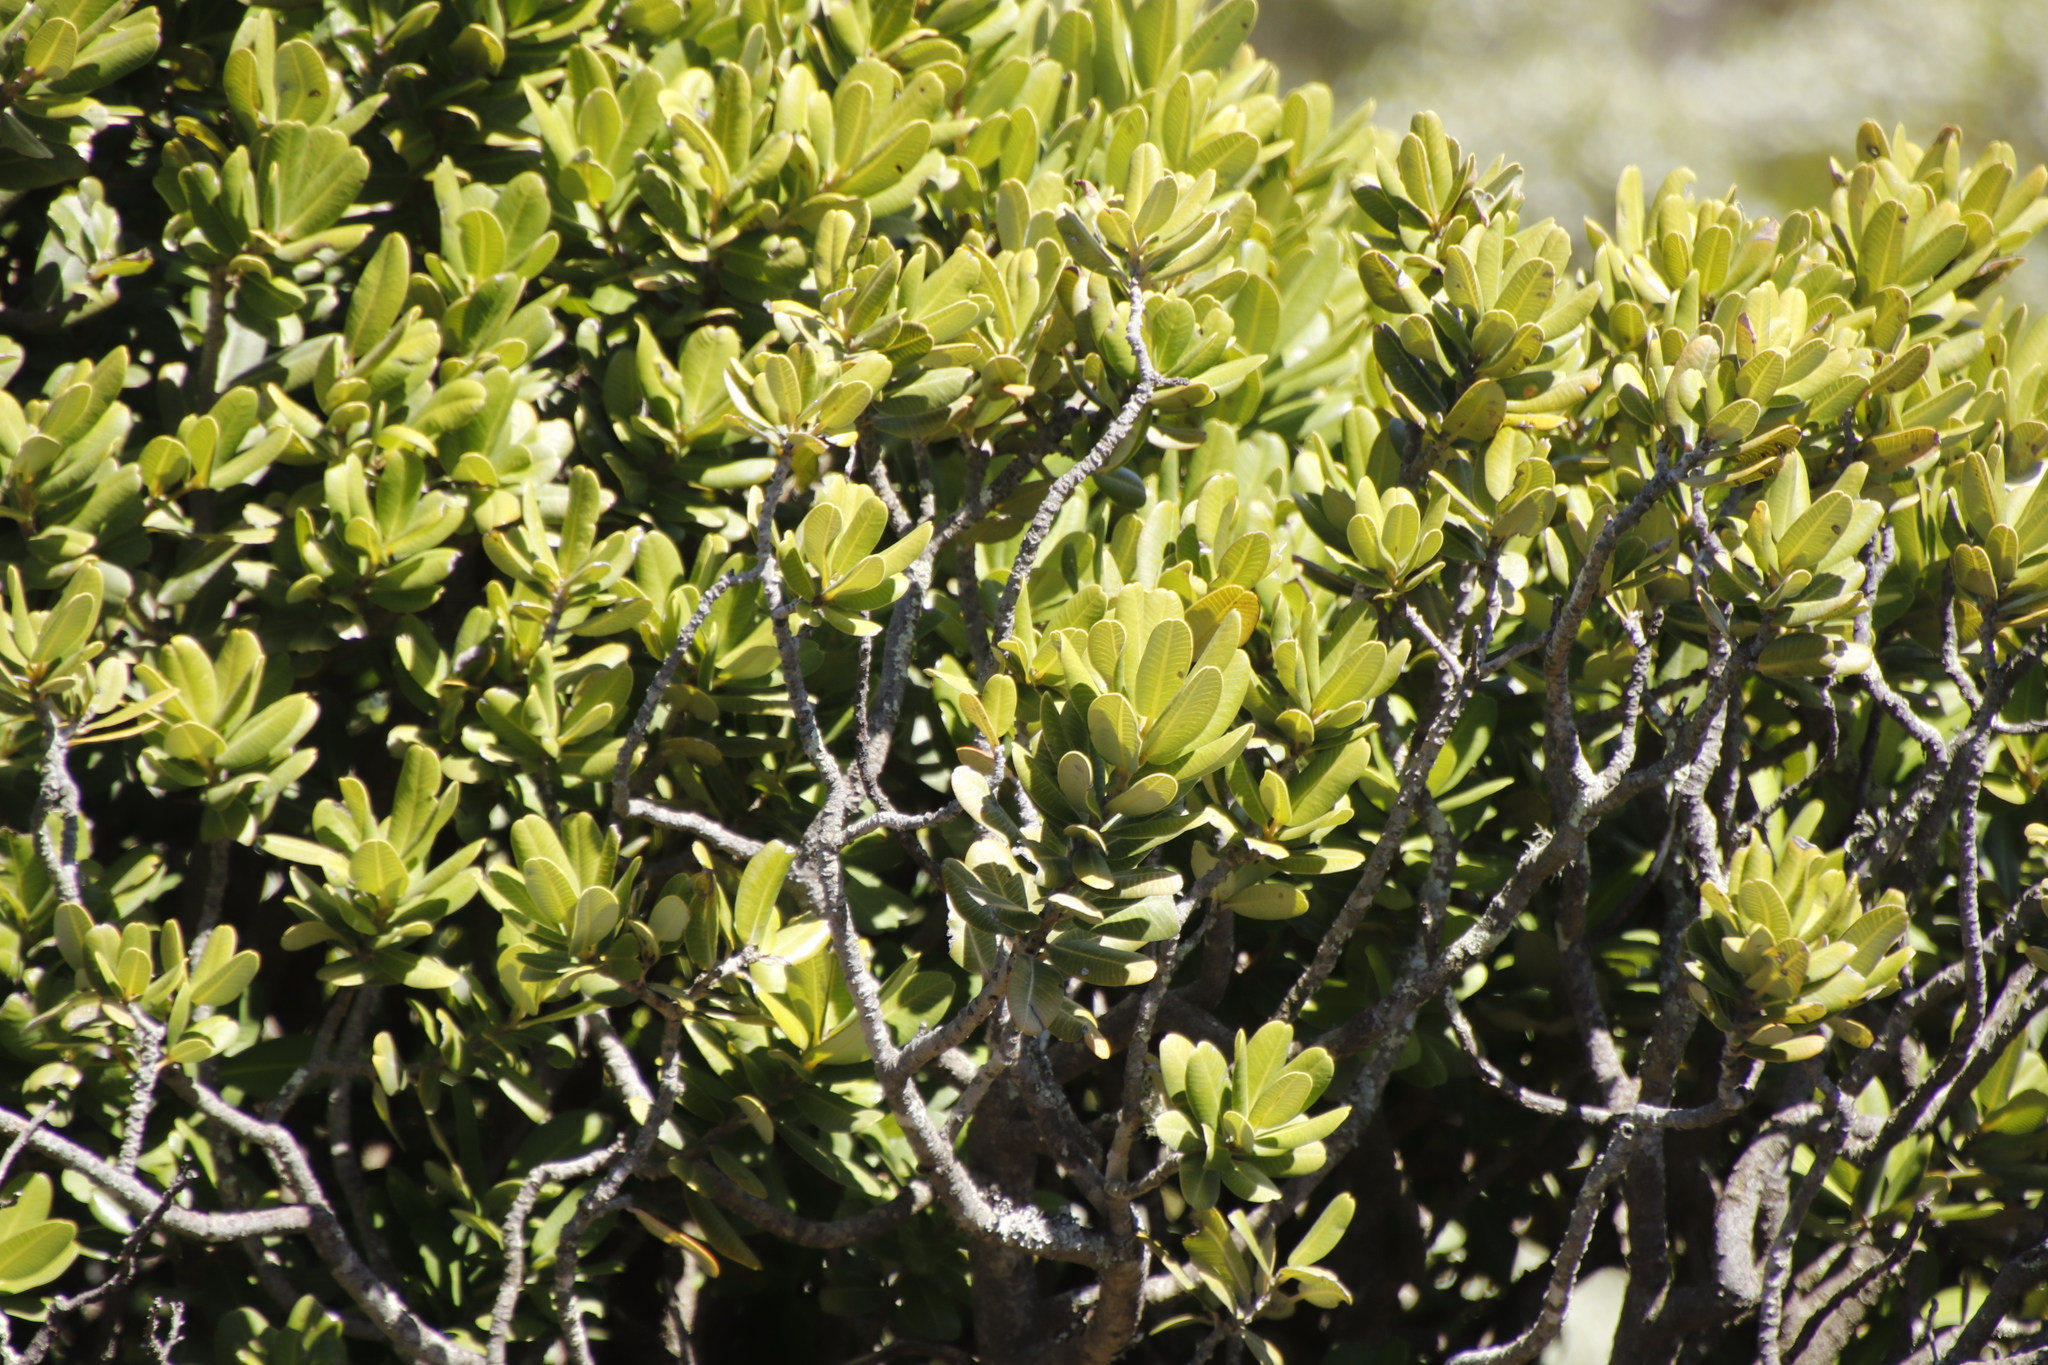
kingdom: Plantae
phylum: Tracheophyta
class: Magnoliopsida
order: Sapindales
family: Anacardiaceae
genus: Heeria
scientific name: Heeria argentea
